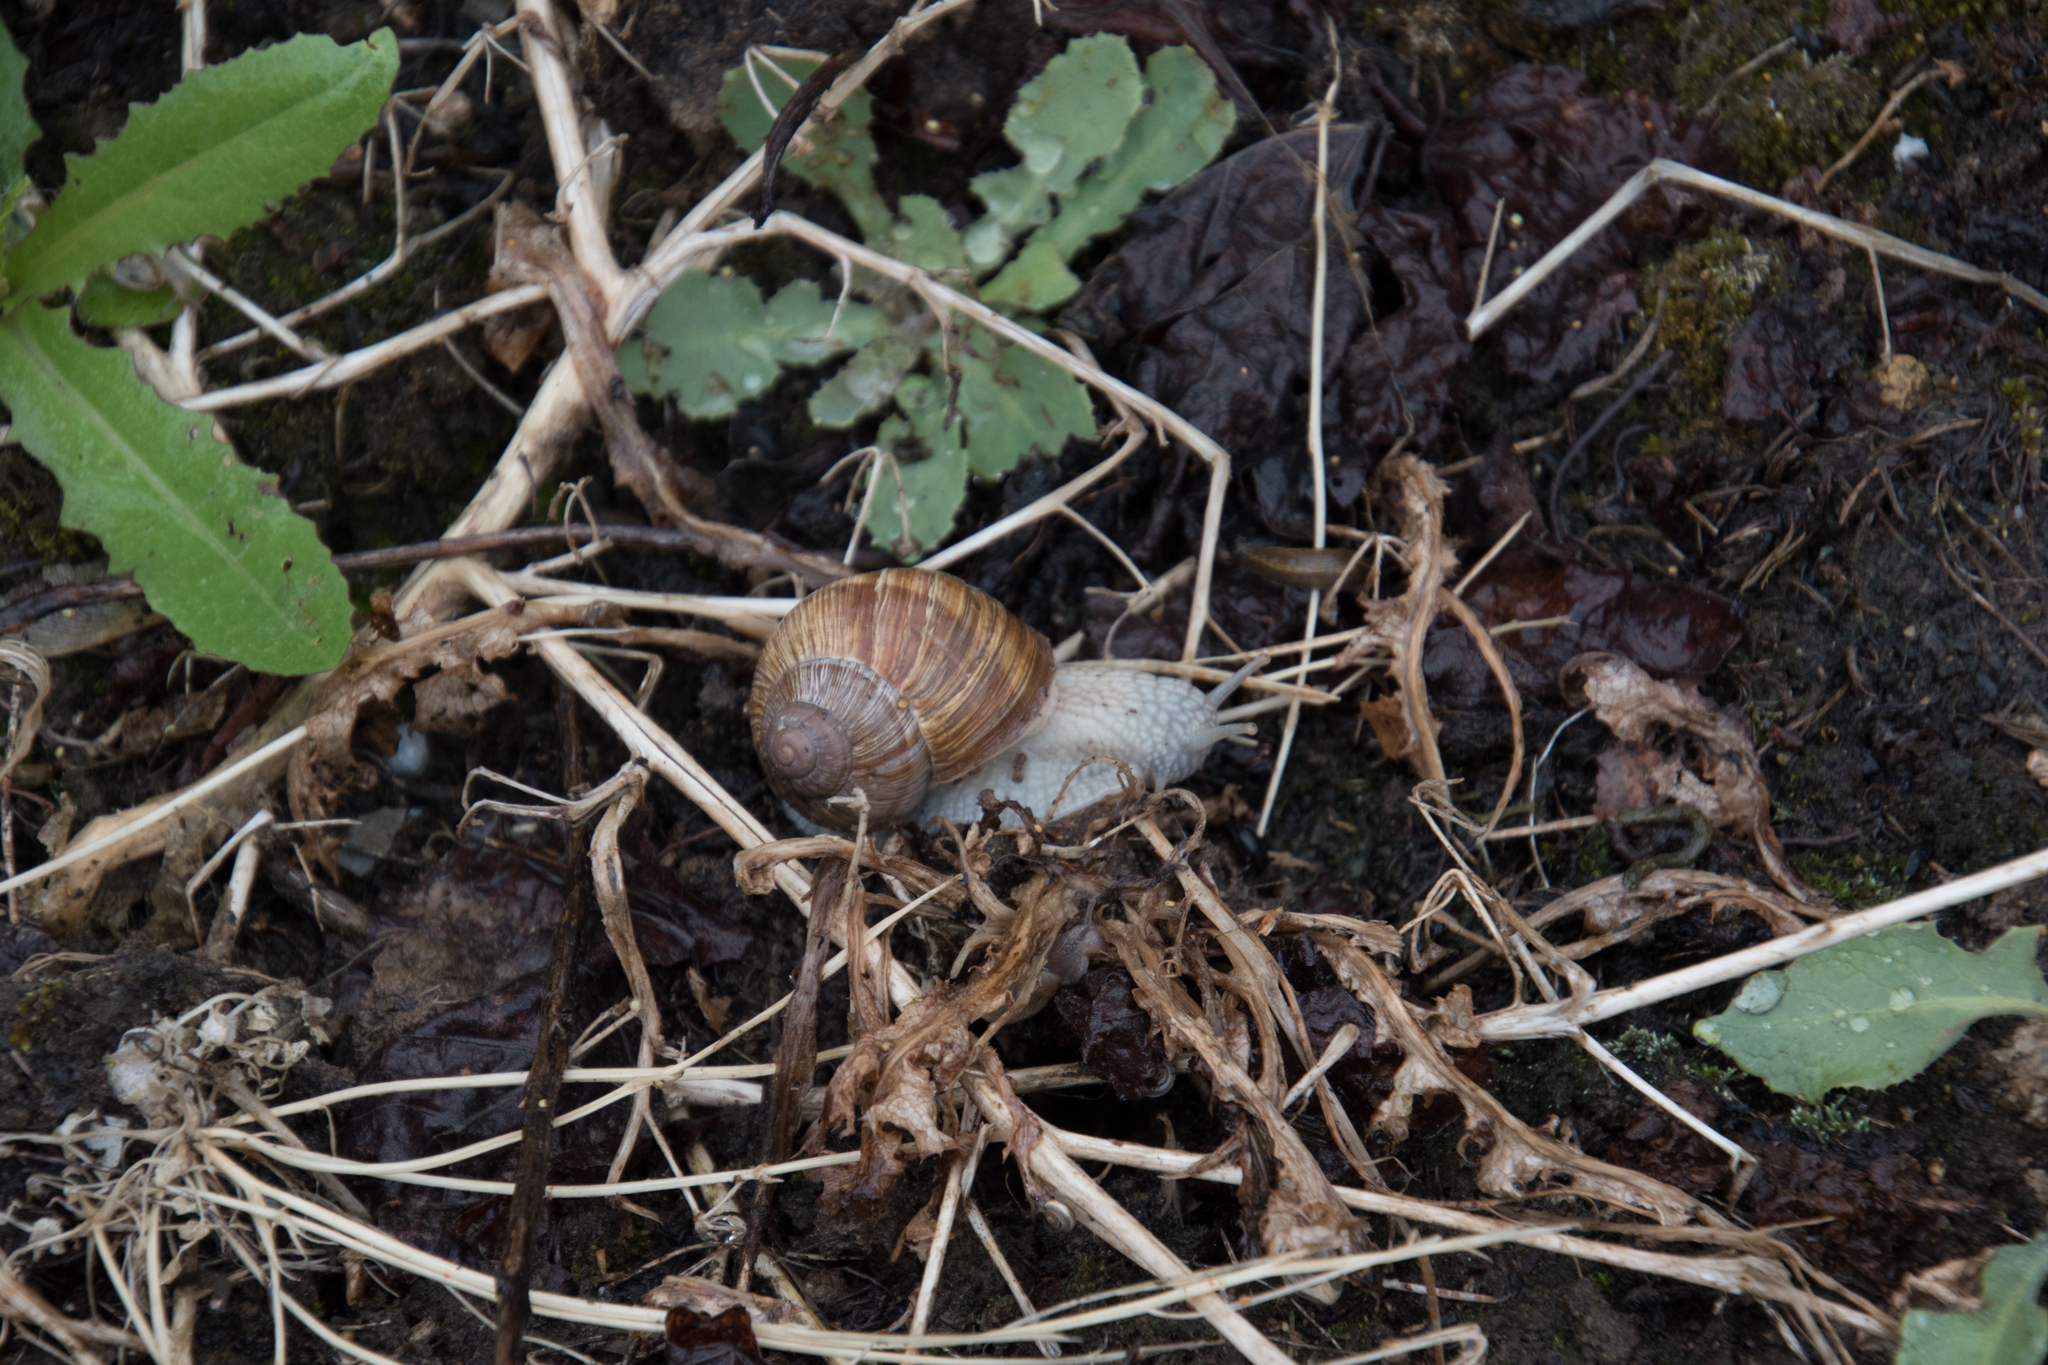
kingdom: Animalia
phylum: Mollusca
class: Gastropoda
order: Stylommatophora
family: Helicidae
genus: Helix
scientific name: Helix pomatia
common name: Roman snail
